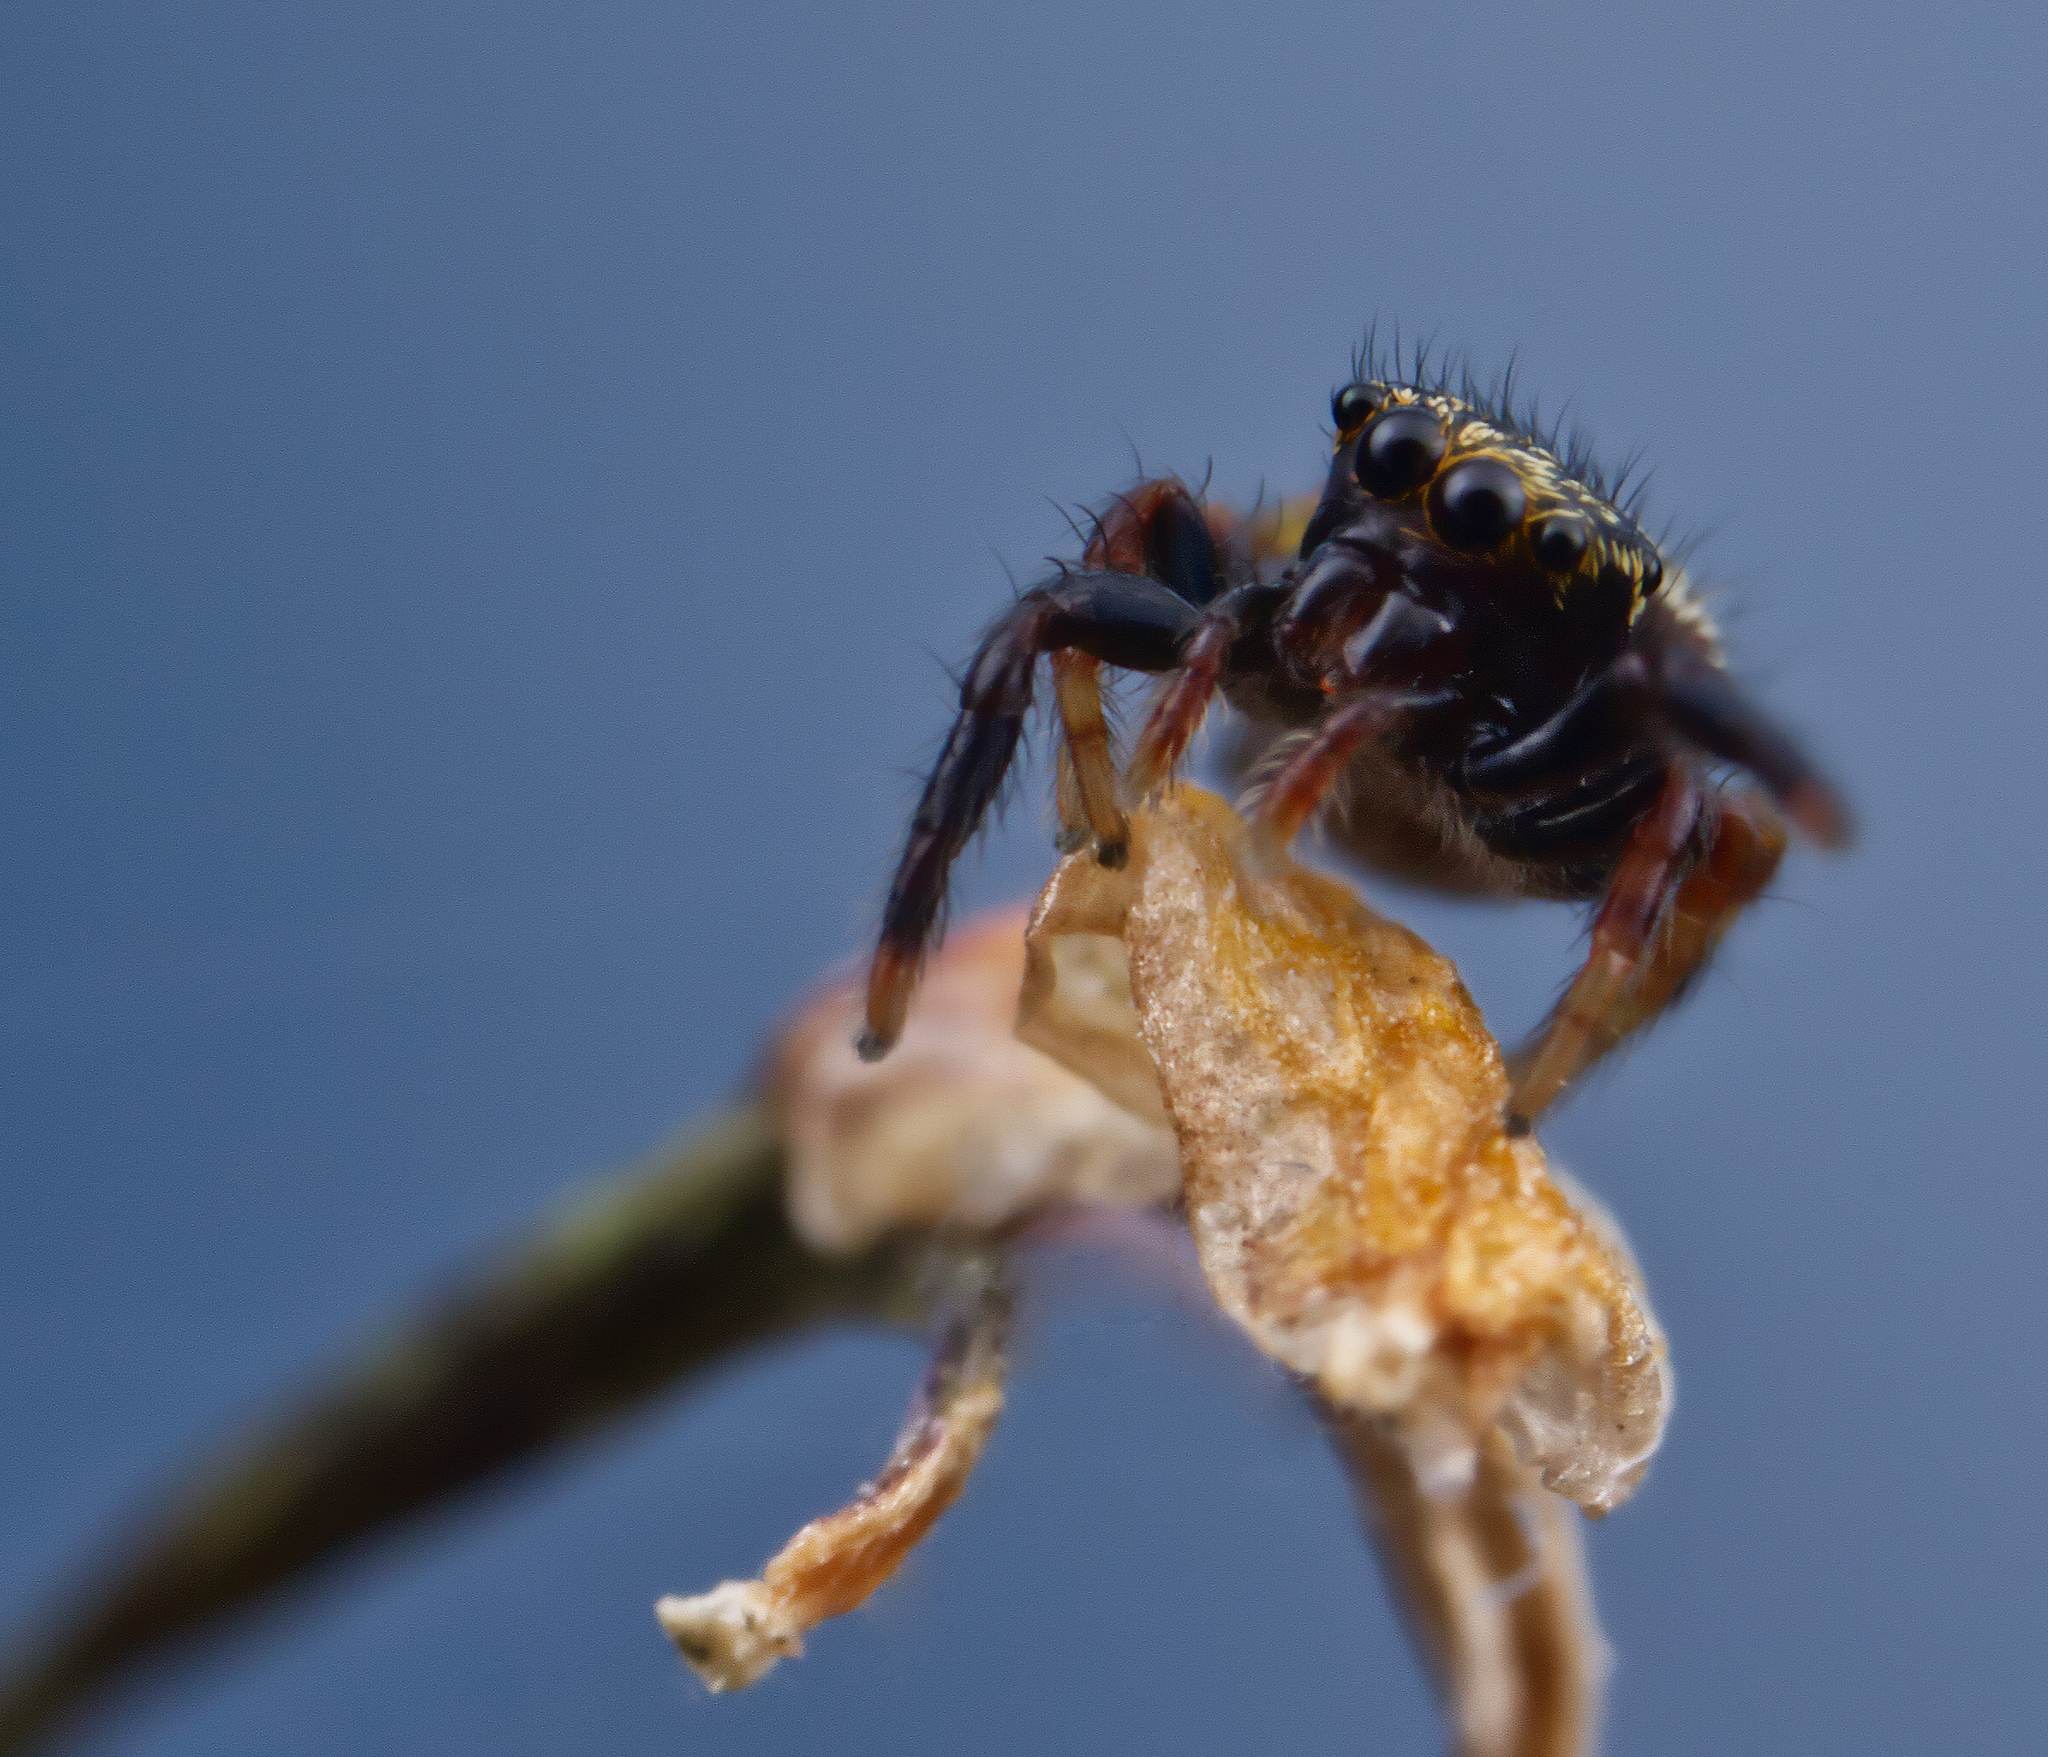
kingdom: Animalia
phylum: Arthropoda
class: Arachnida
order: Araneae
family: Salticidae
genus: Paraphidippus
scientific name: Paraphidippus aurantius
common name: Jumping spiders
